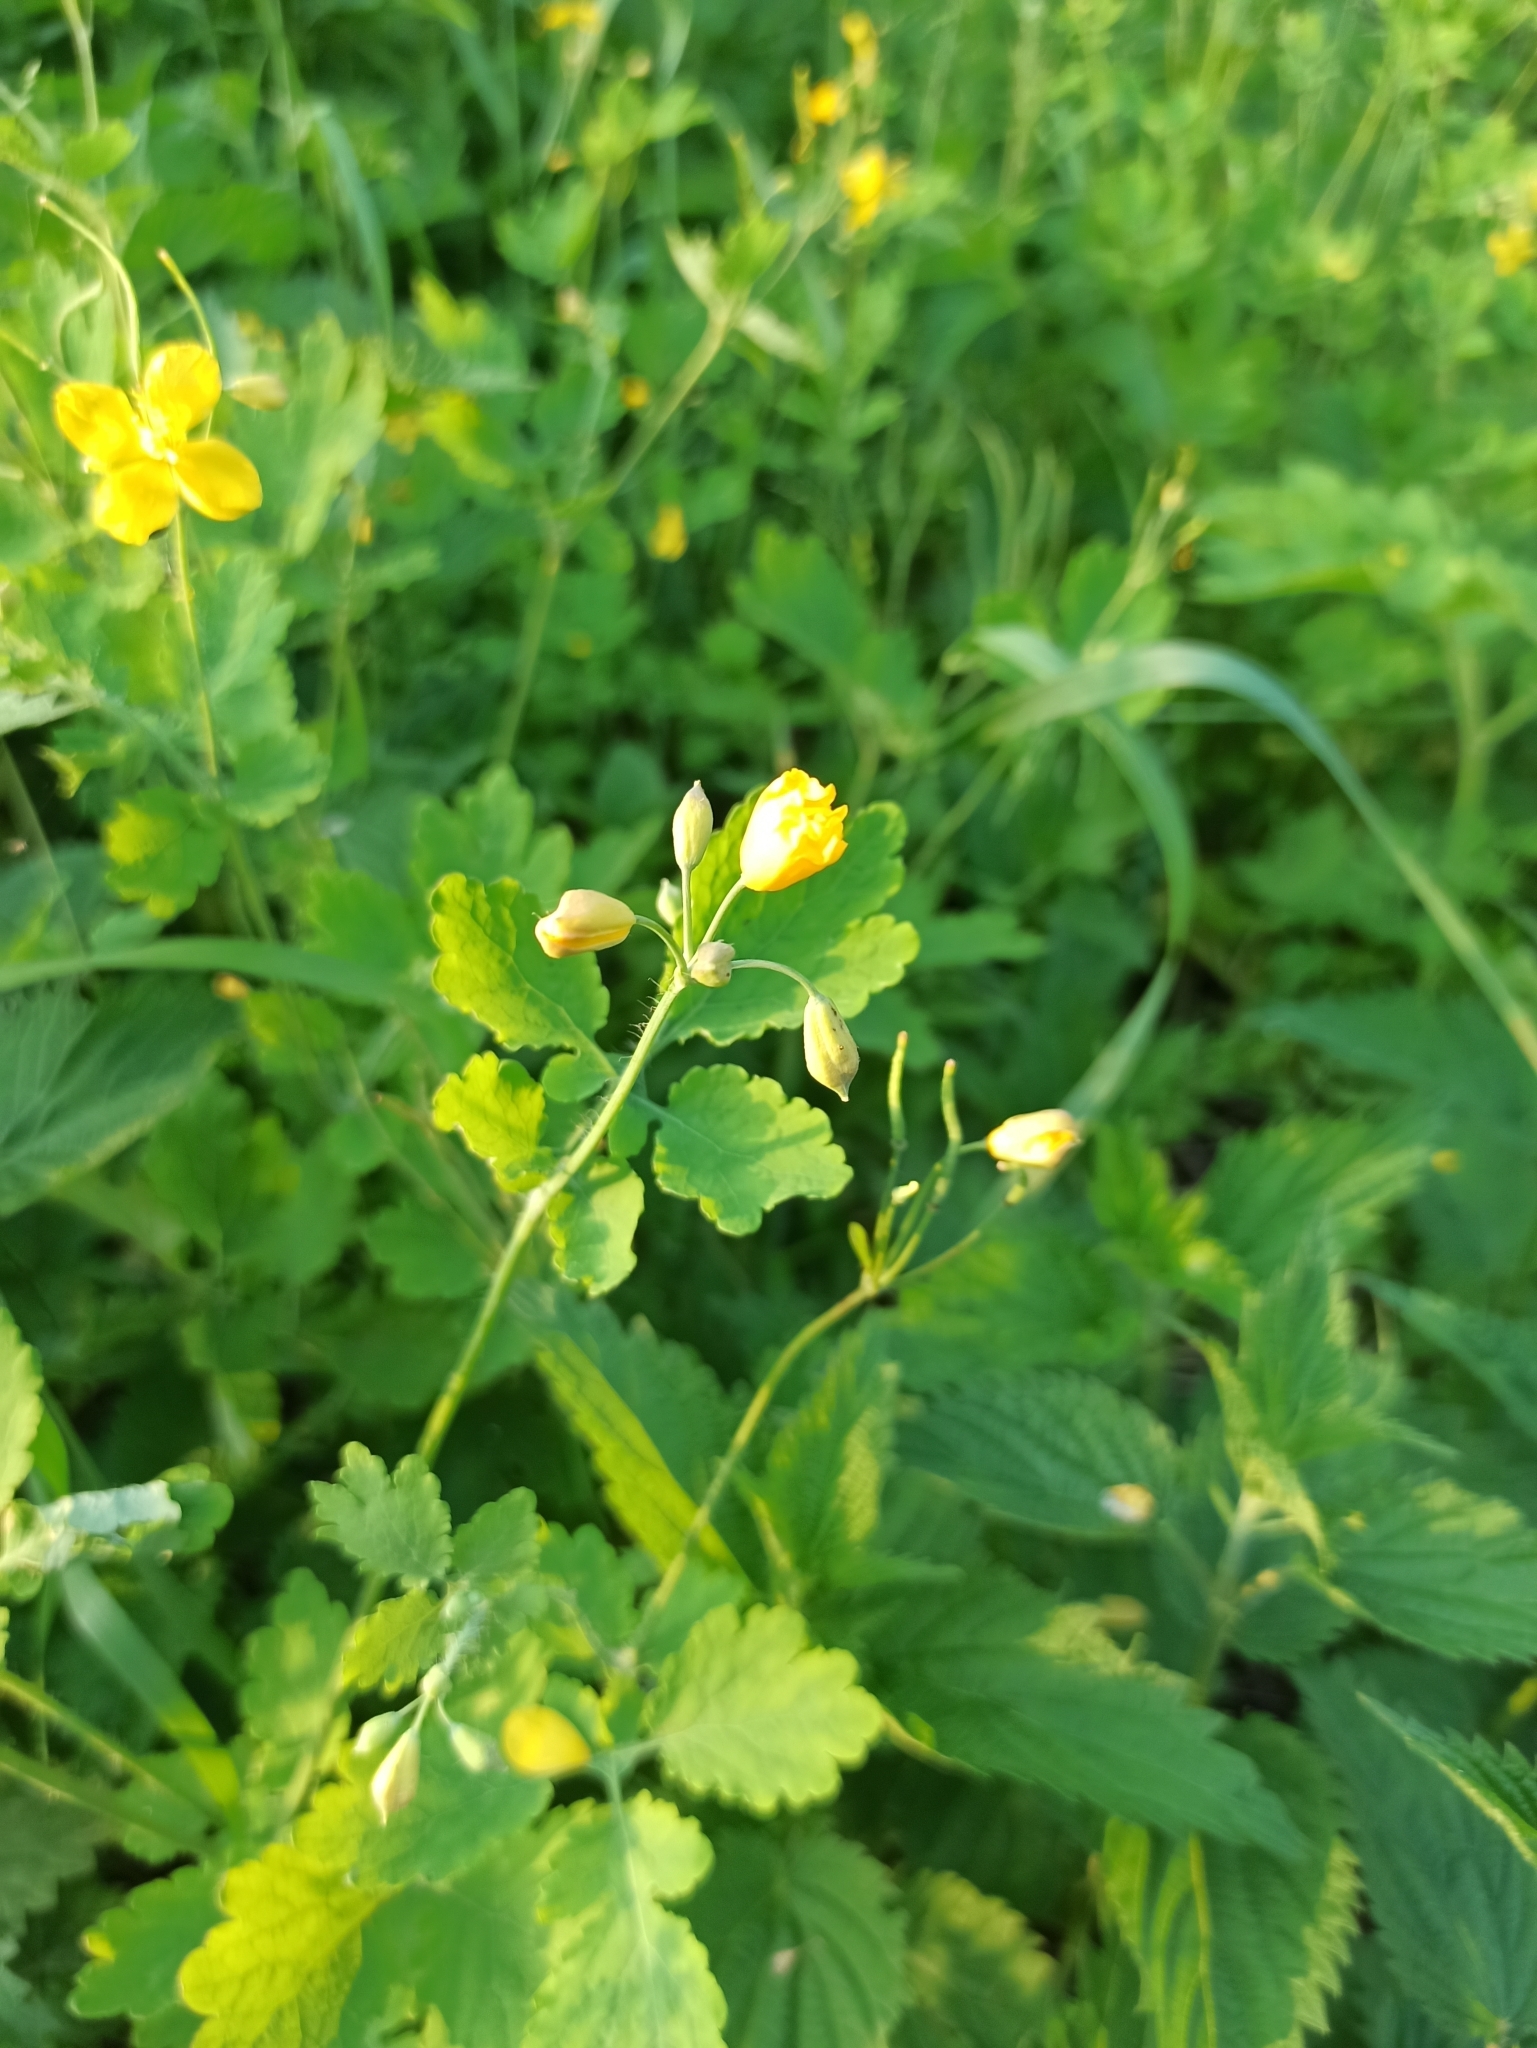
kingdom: Plantae
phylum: Tracheophyta
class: Magnoliopsida
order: Ranunculales
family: Papaveraceae
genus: Chelidonium
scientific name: Chelidonium majus
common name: Greater celandine
